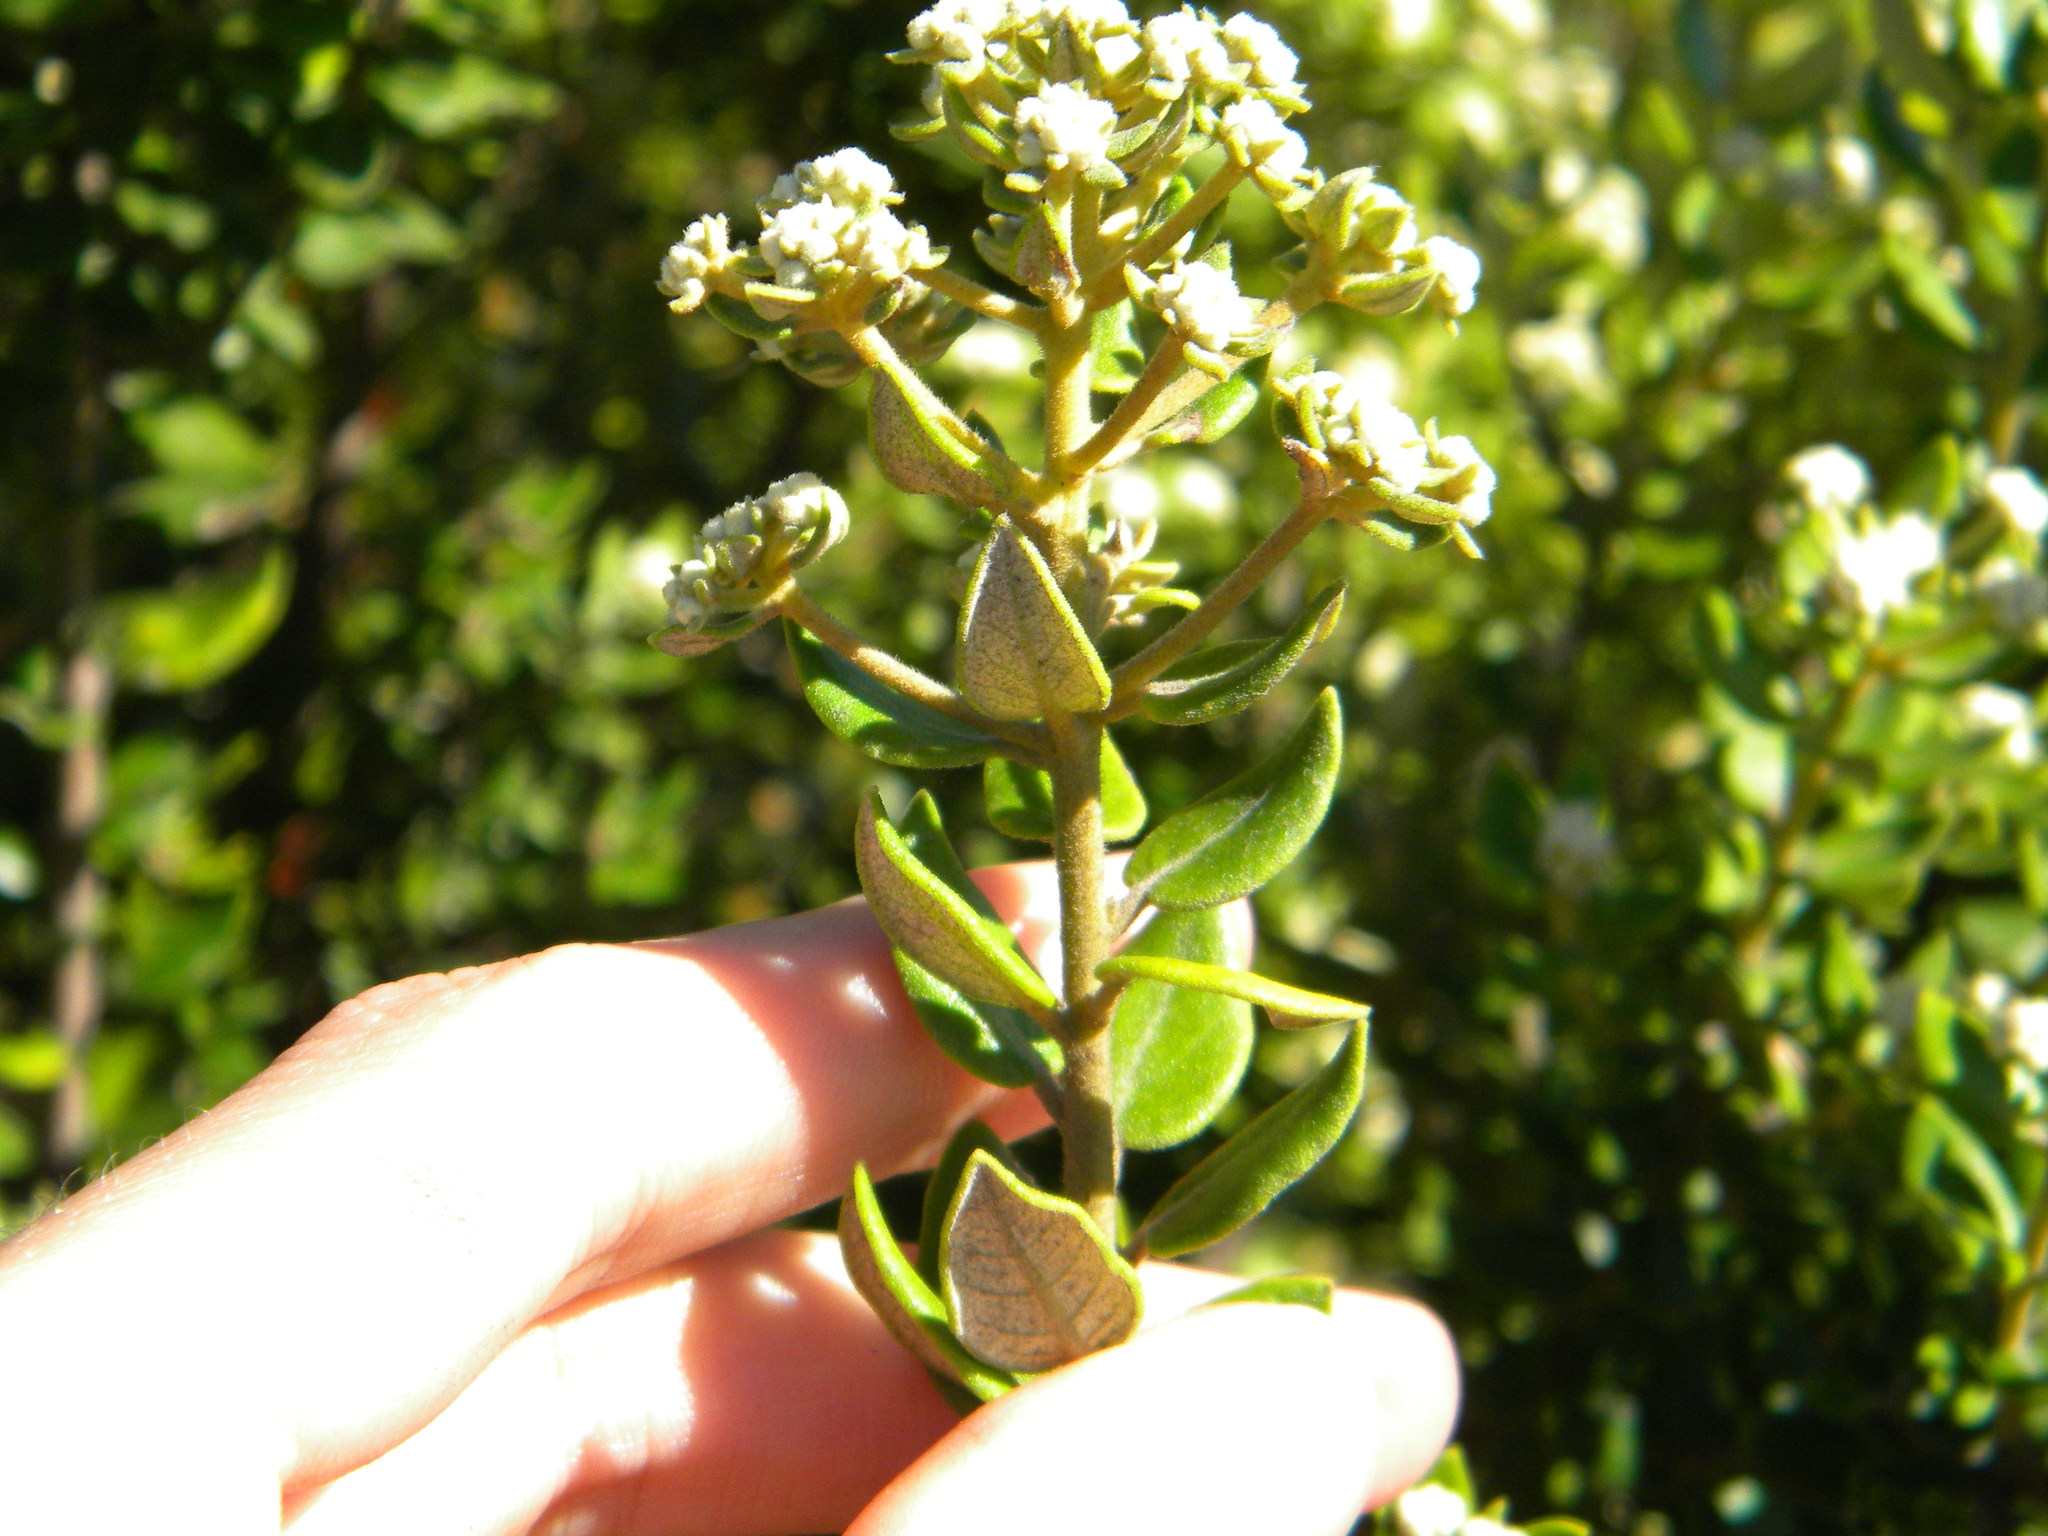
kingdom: Plantae
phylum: Tracheophyta
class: Magnoliopsida
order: Rosales
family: Rhamnaceae
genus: Phylica
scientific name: Phylica buxifolia
